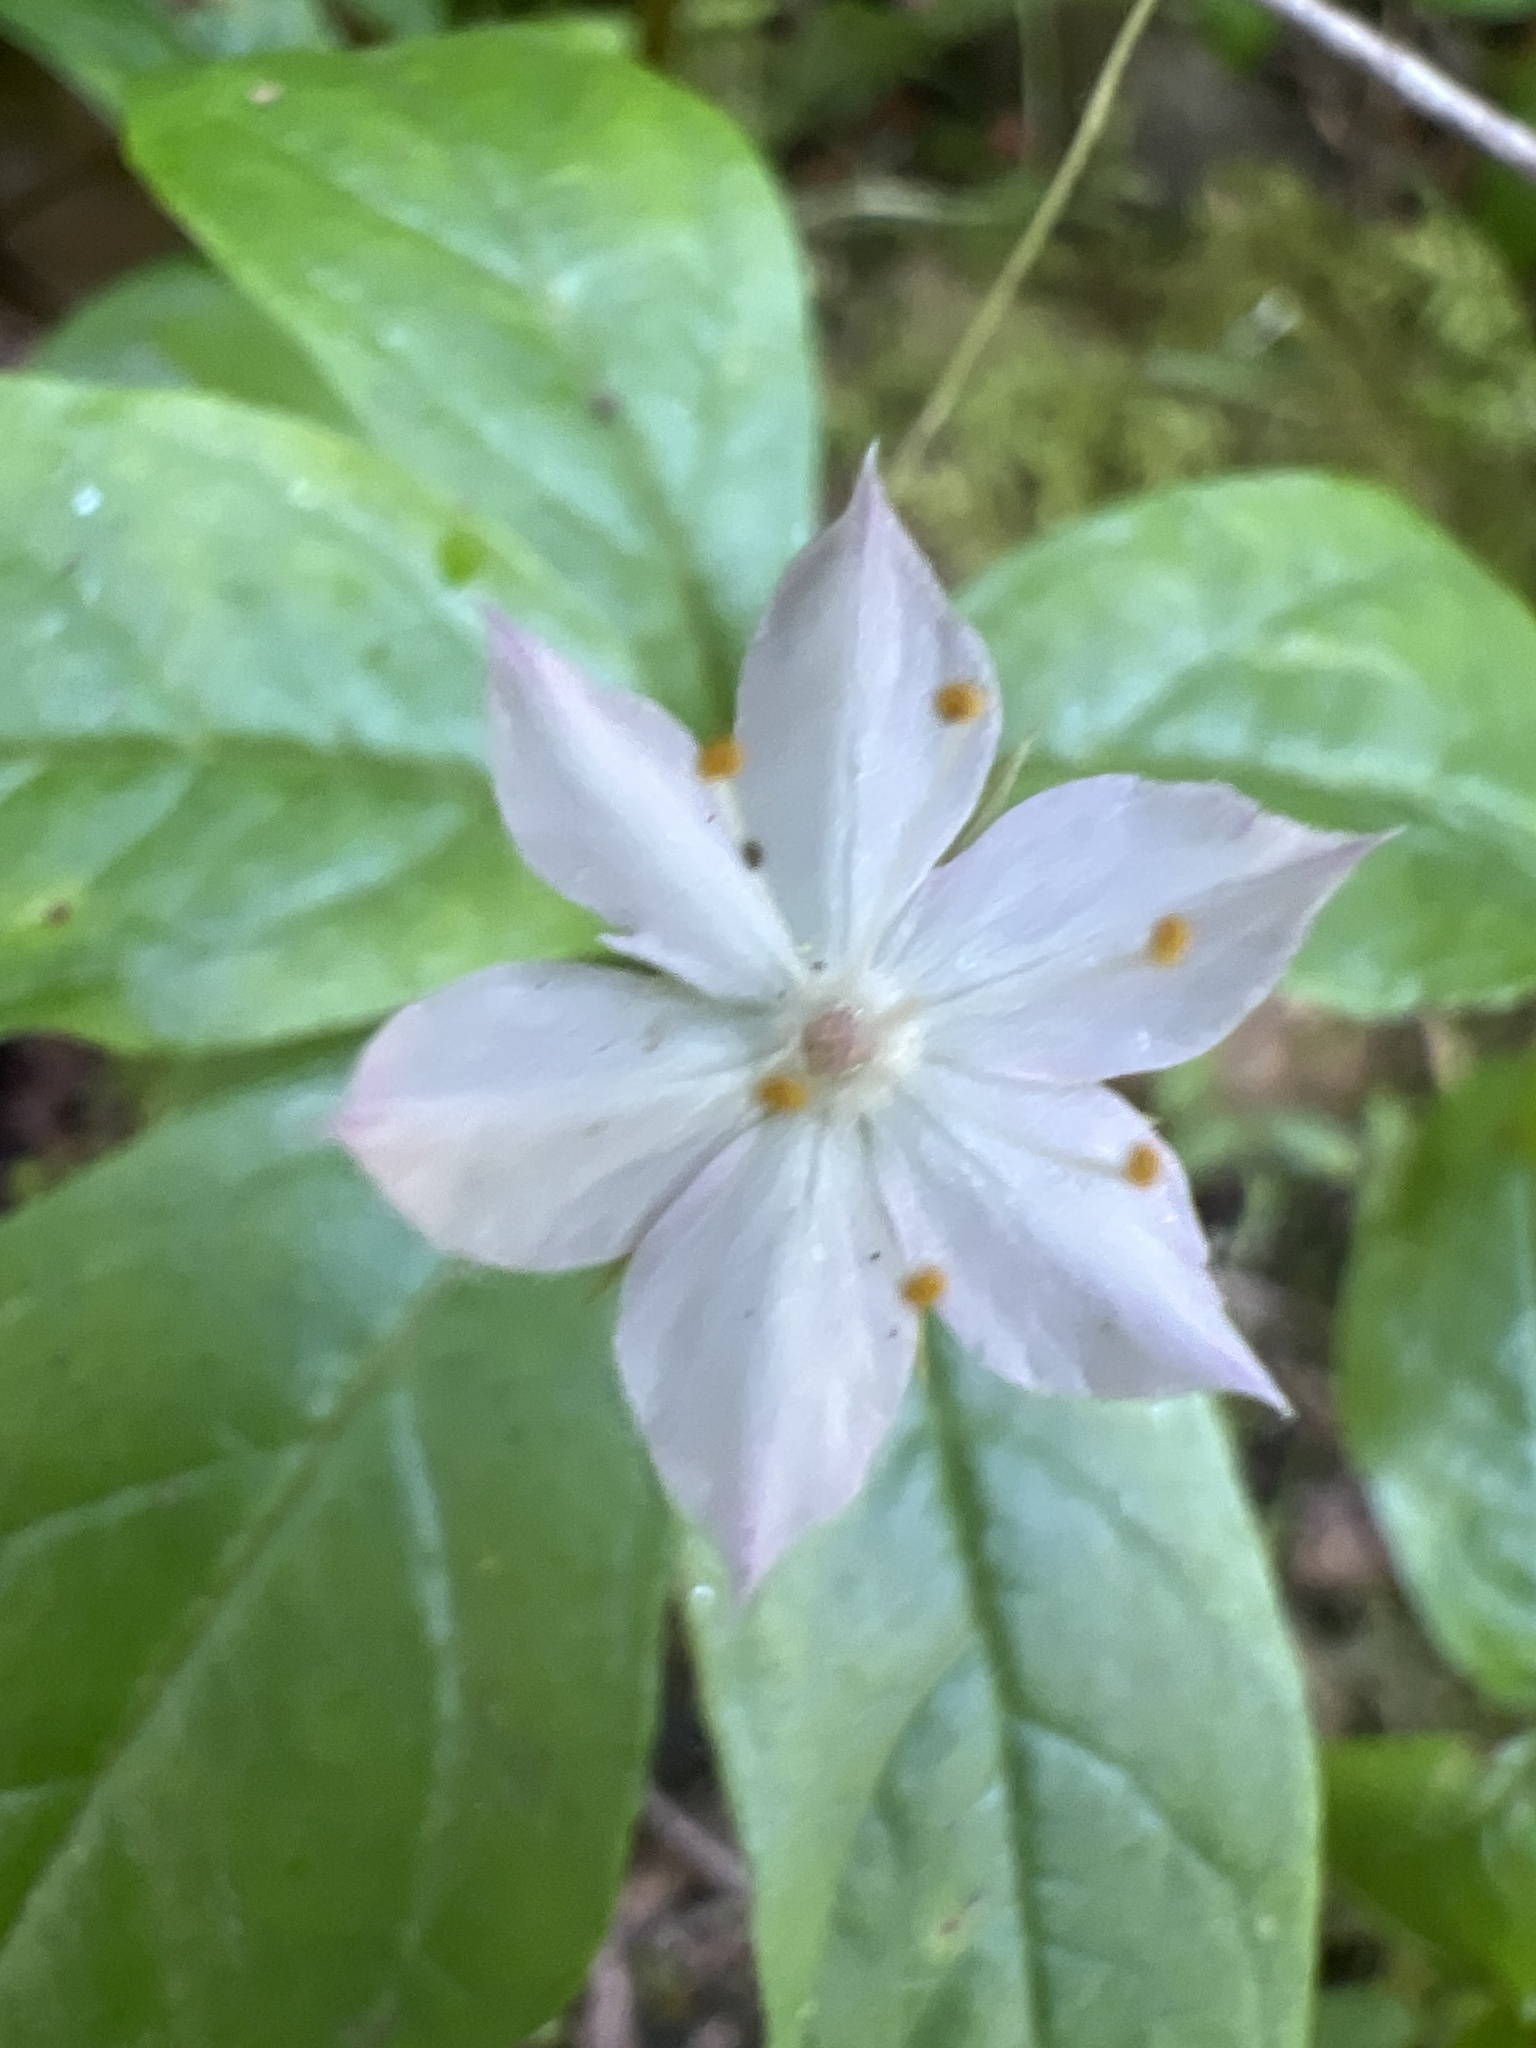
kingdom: Plantae
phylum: Tracheophyta
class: Magnoliopsida
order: Ericales
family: Primulaceae
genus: Lysimachia
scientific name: Lysimachia latifolia
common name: Pacific starflower
